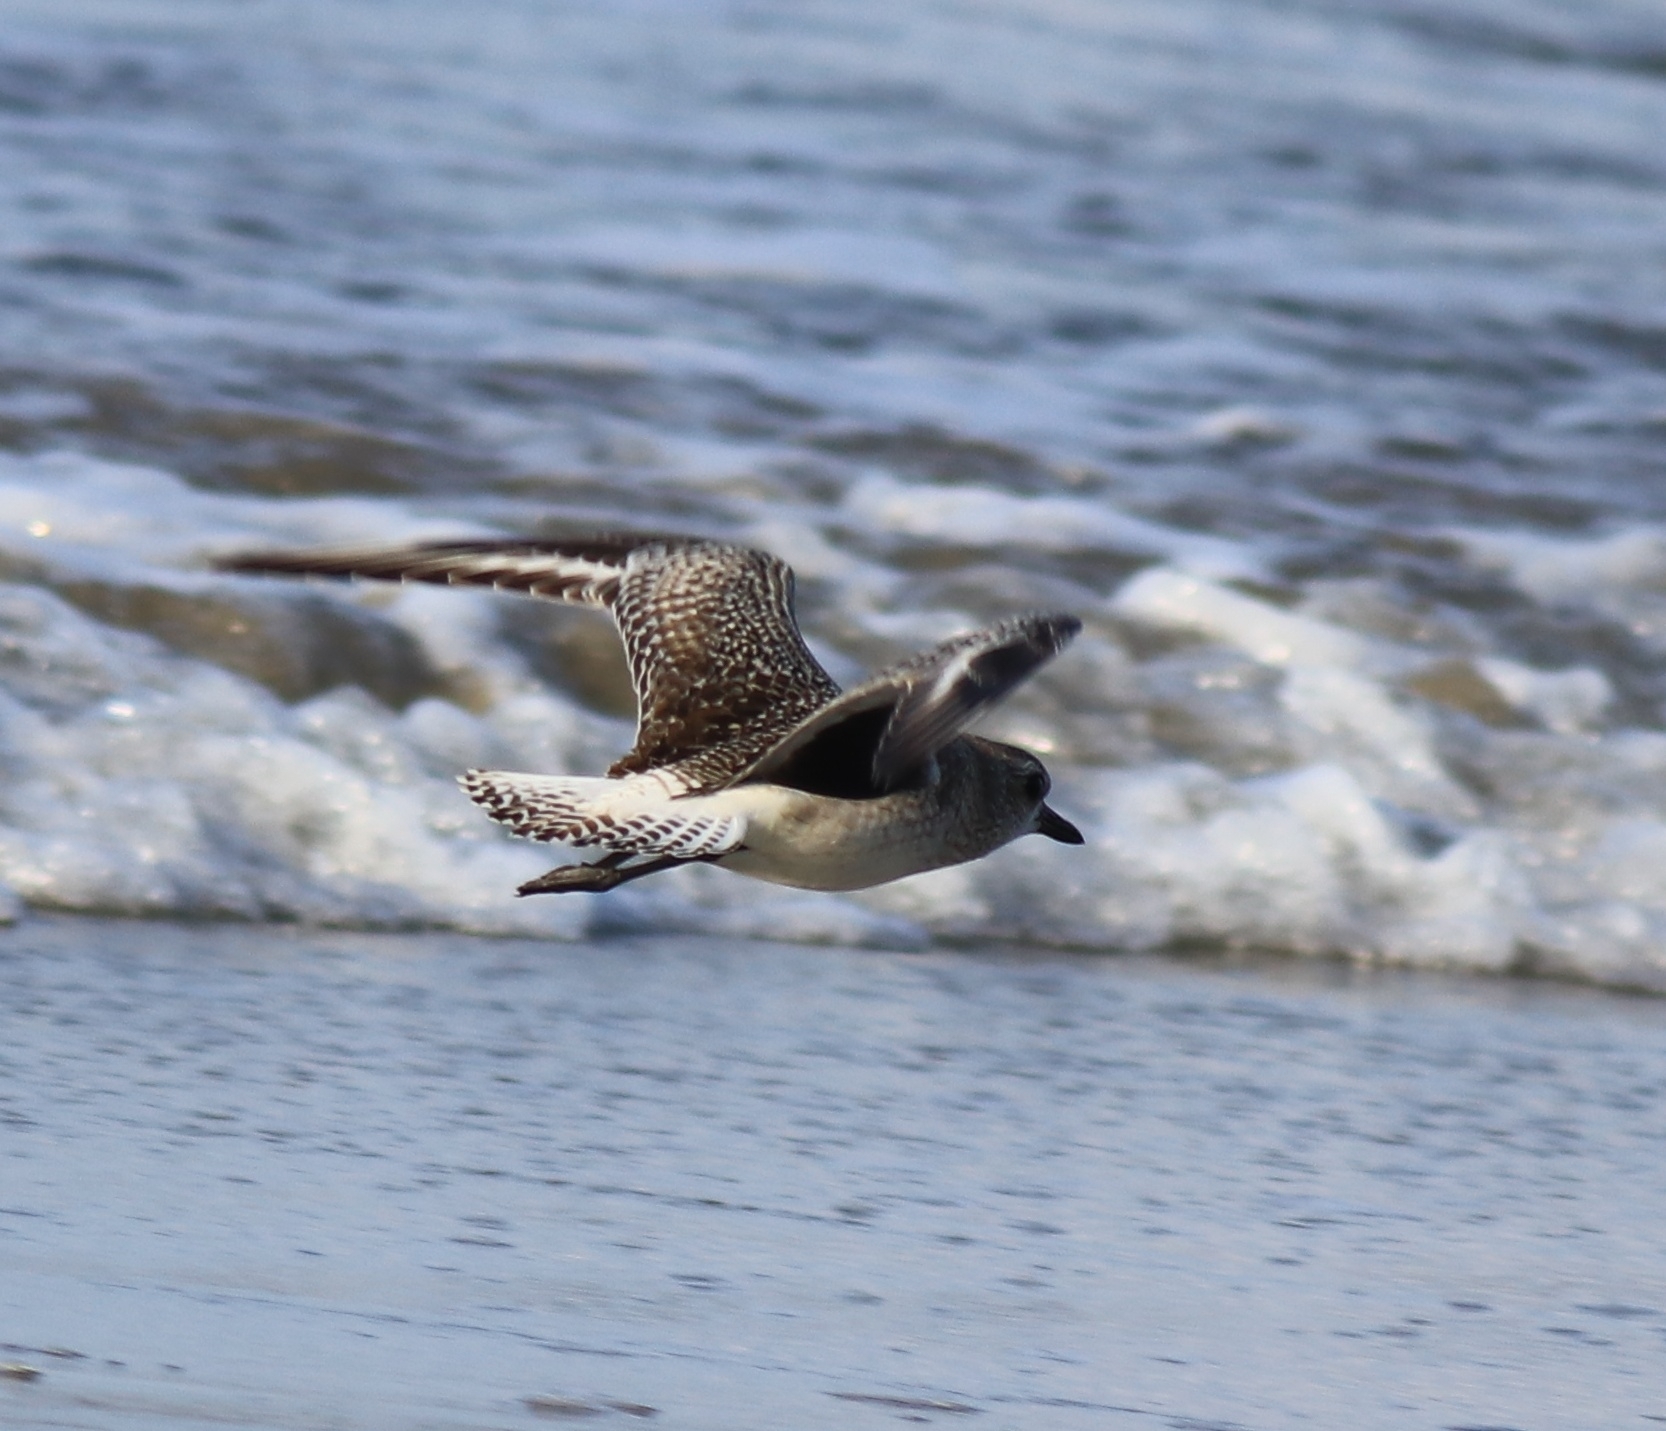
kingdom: Animalia
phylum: Chordata
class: Aves
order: Charadriiformes
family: Charadriidae
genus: Pluvialis
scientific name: Pluvialis squatarola
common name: Grey plover
